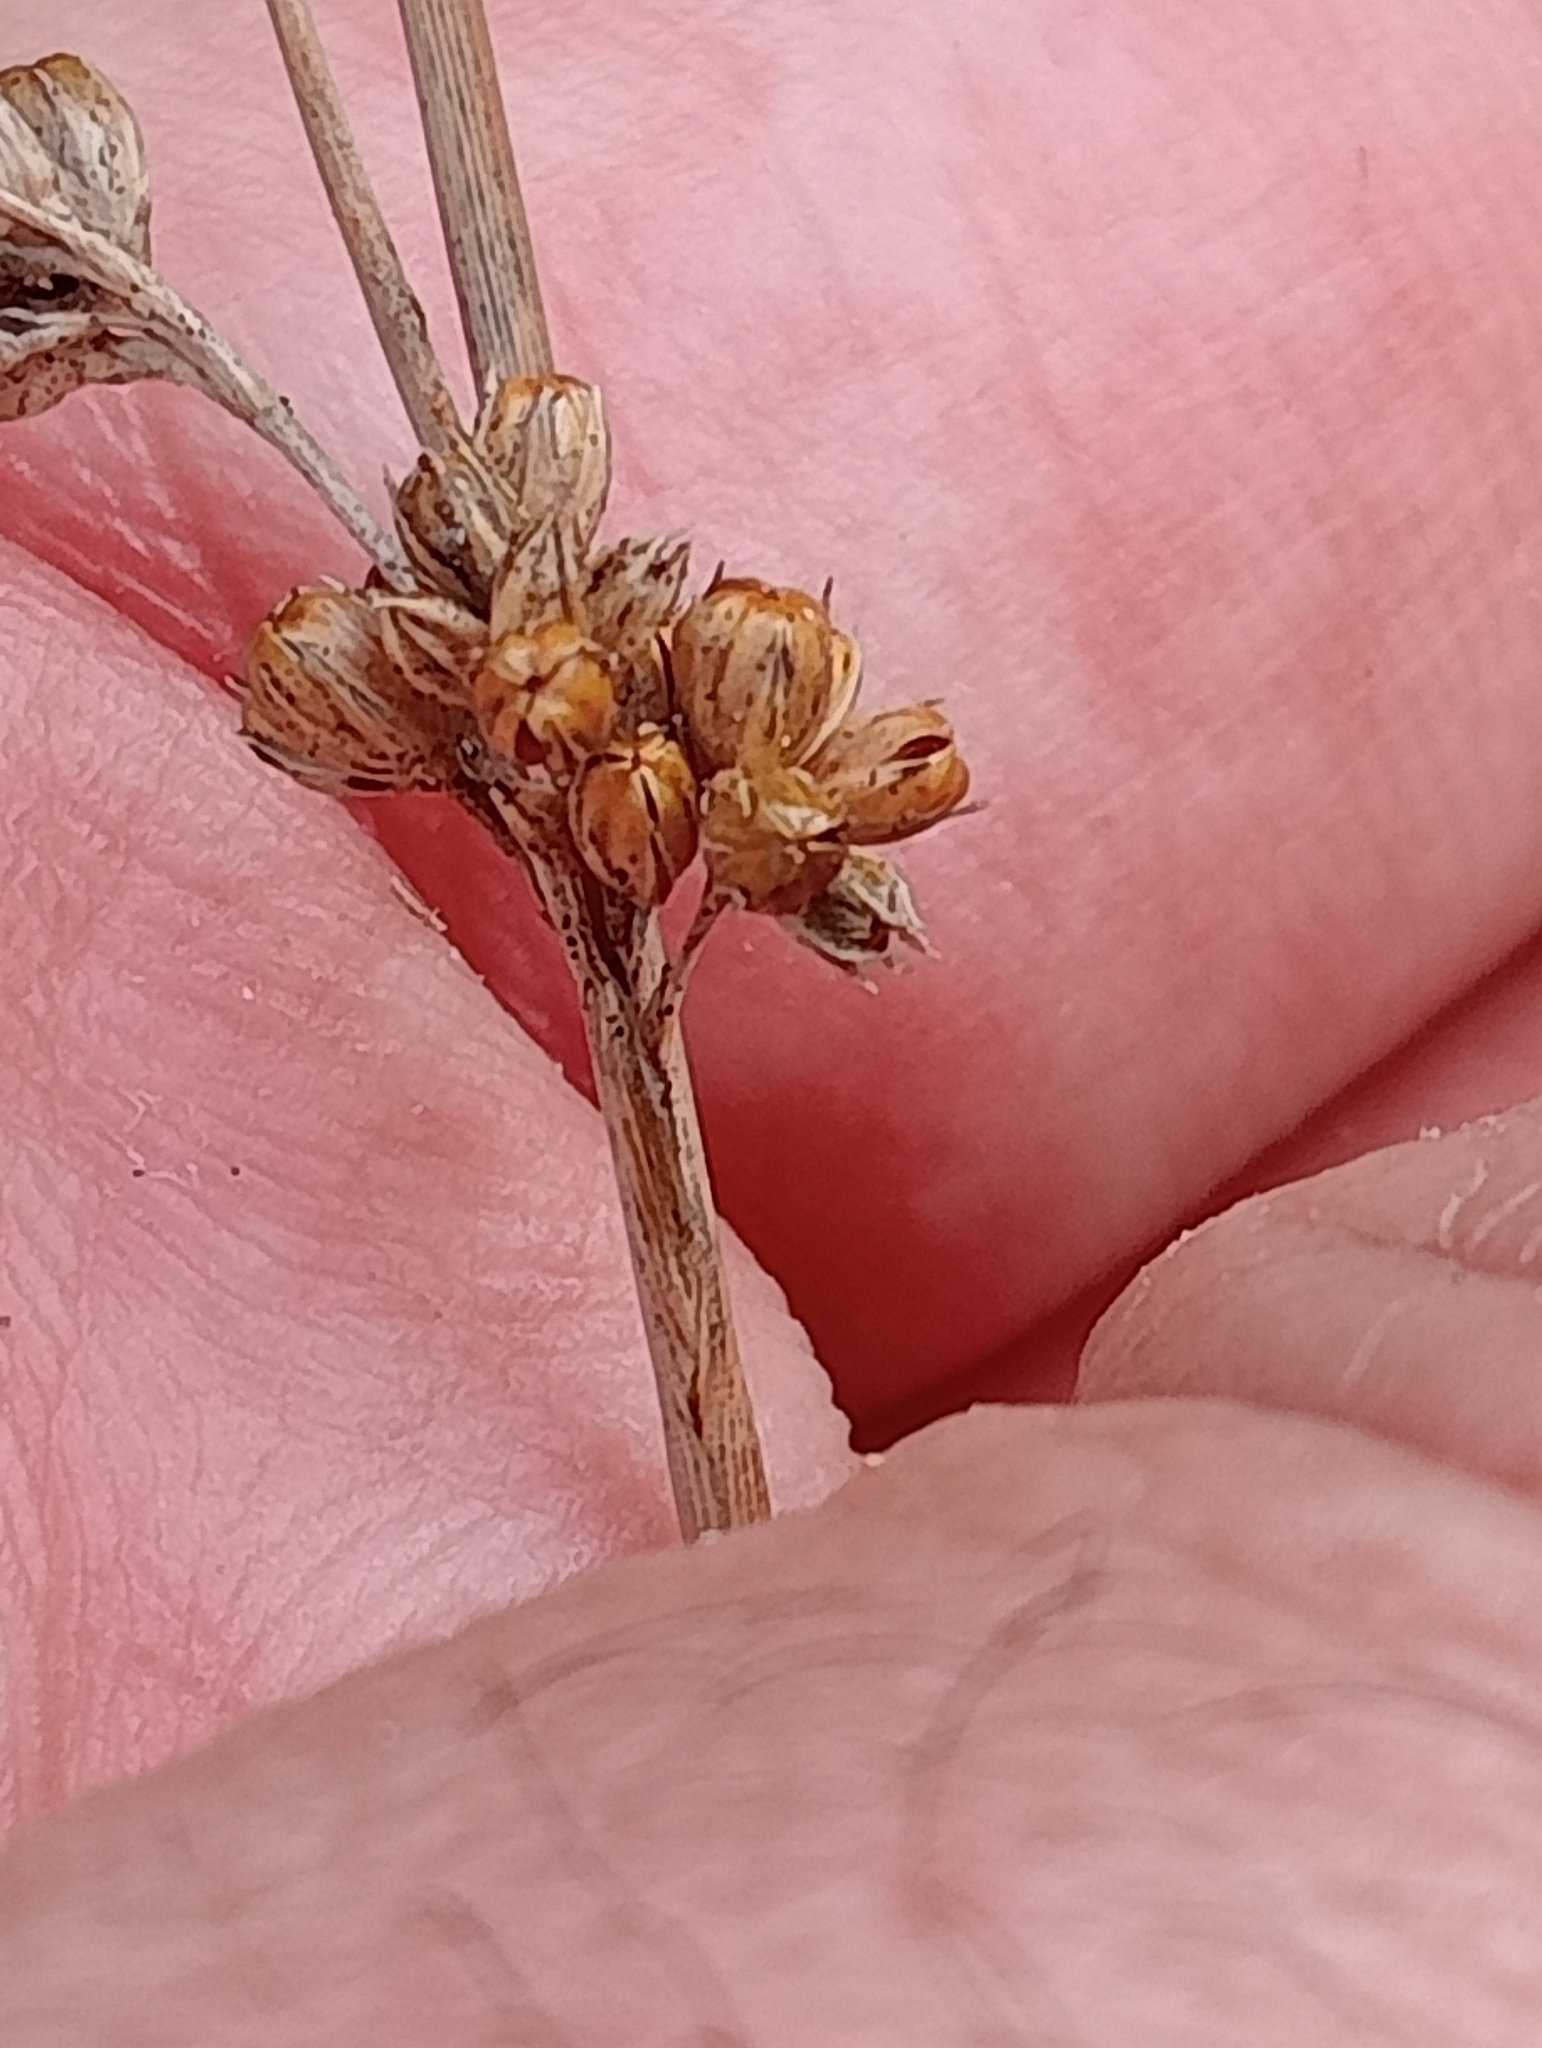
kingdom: Plantae
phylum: Tracheophyta
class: Liliopsida
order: Poales
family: Juncaceae
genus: Juncus
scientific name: Juncus distegus
